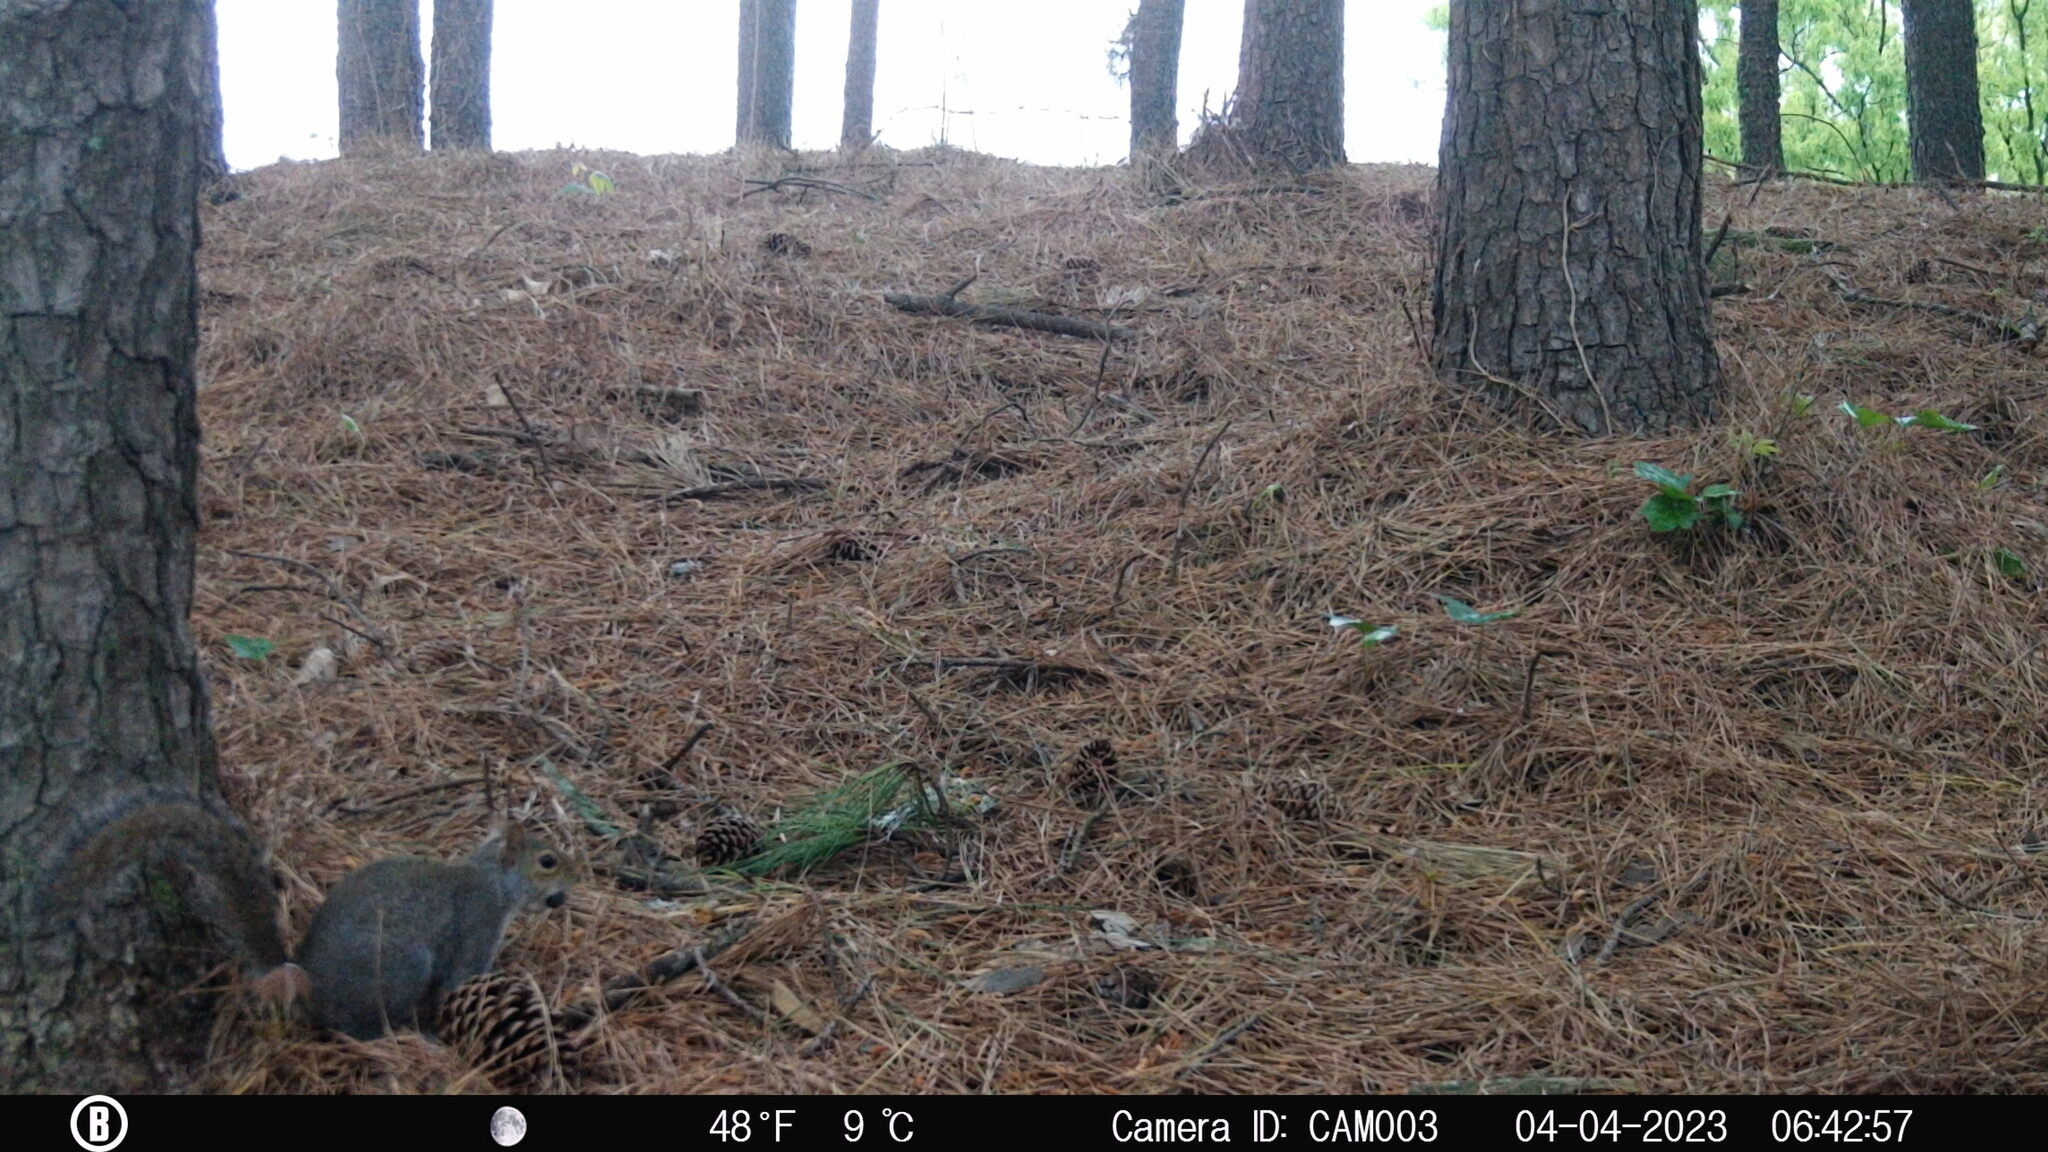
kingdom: Animalia
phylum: Chordata
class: Mammalia
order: Rodentia
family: Sciuridae
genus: Sciurus
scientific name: Sciurus carolinensis
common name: Eastern gray squirrel
